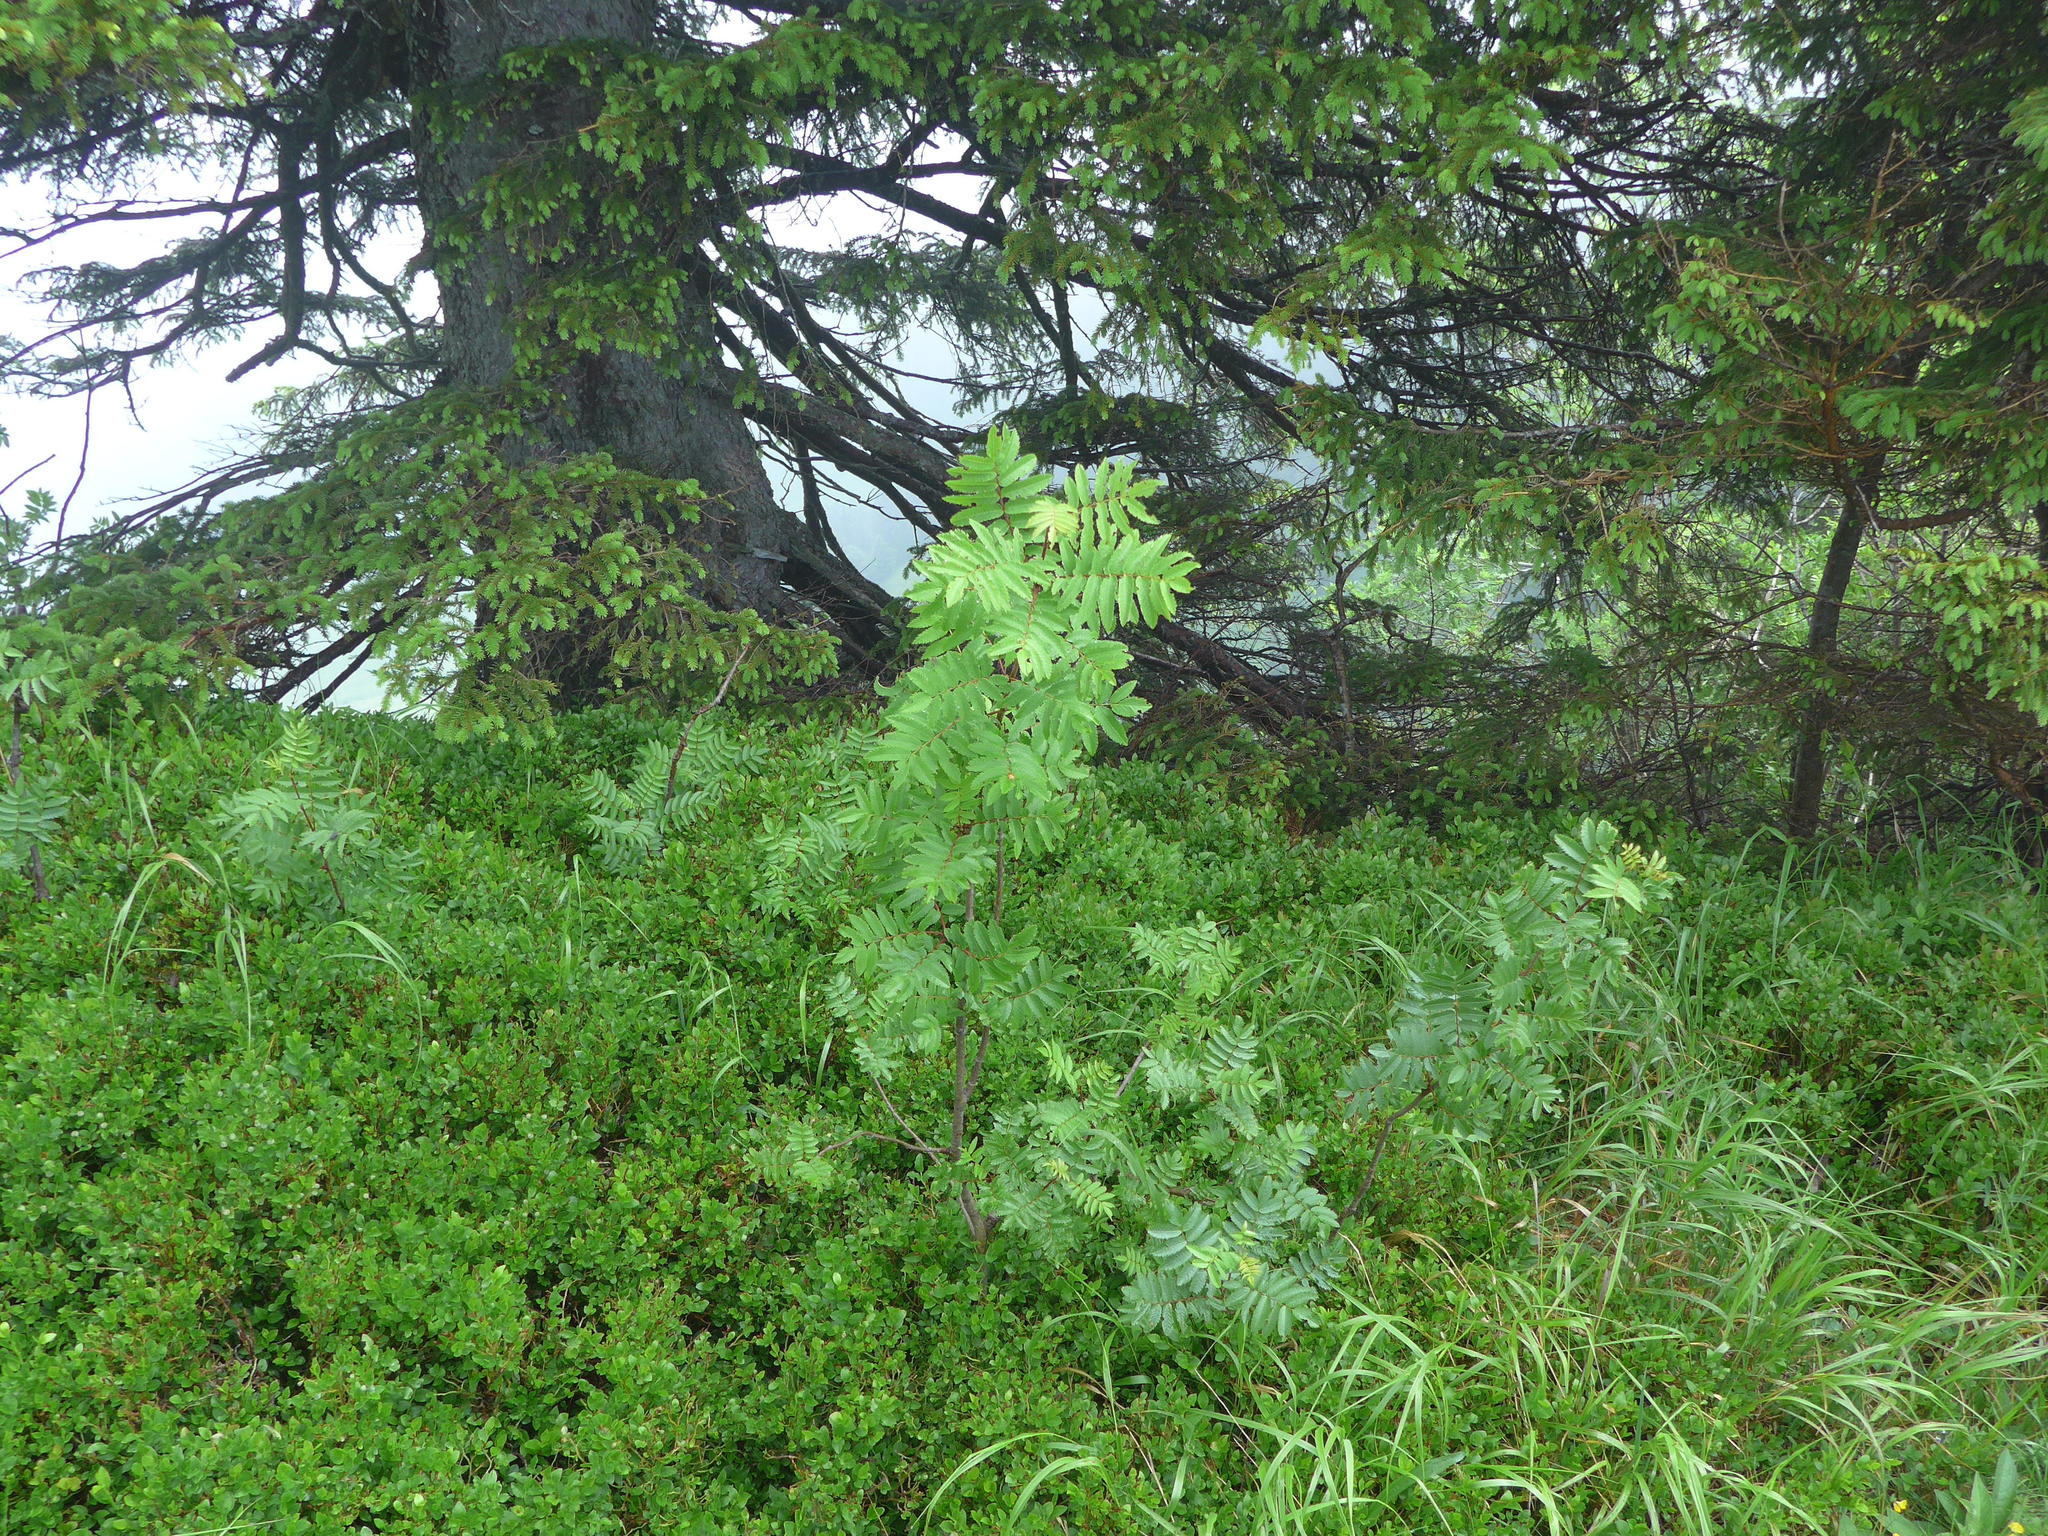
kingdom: Plantae
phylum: Tracheophyta
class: Magnoliopsida
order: Rosales
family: Rosaceae
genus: Sorbus
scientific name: Sorbus aucuparia
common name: Rowan
